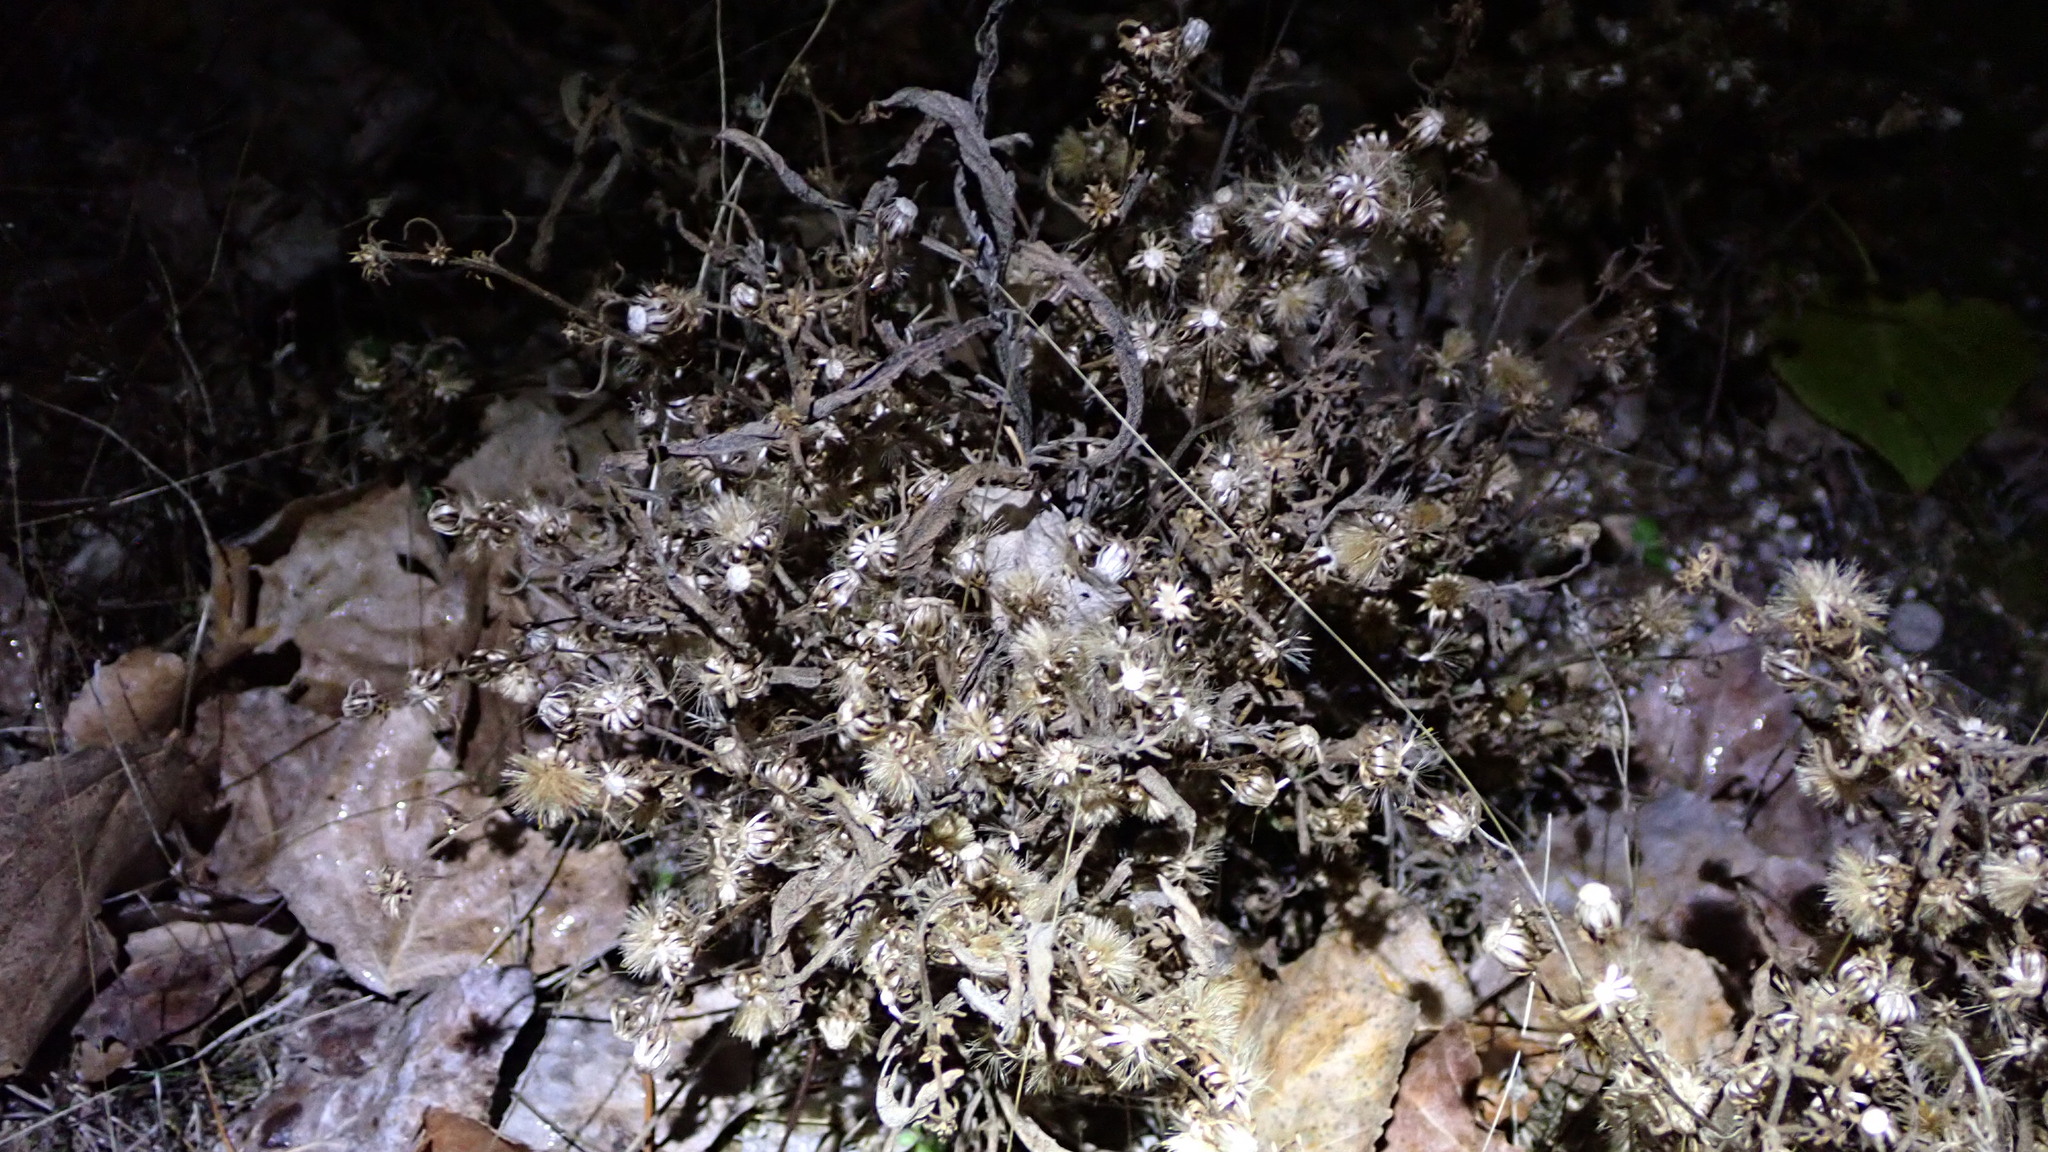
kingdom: Plantae
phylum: Tracheophyta
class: Magnoliopsida
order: Asterales
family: Asteraceae
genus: Dittrichia
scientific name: Dittrichia graveolens
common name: Stinking fleabane
